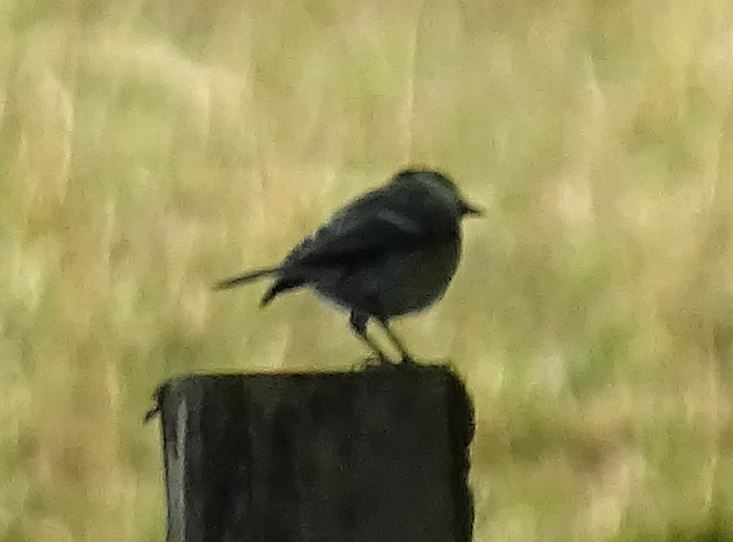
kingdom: Animalia
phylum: Chordata
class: Aves
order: Passeriformes
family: Paridae
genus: Parus
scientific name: Parus major
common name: Great tit
